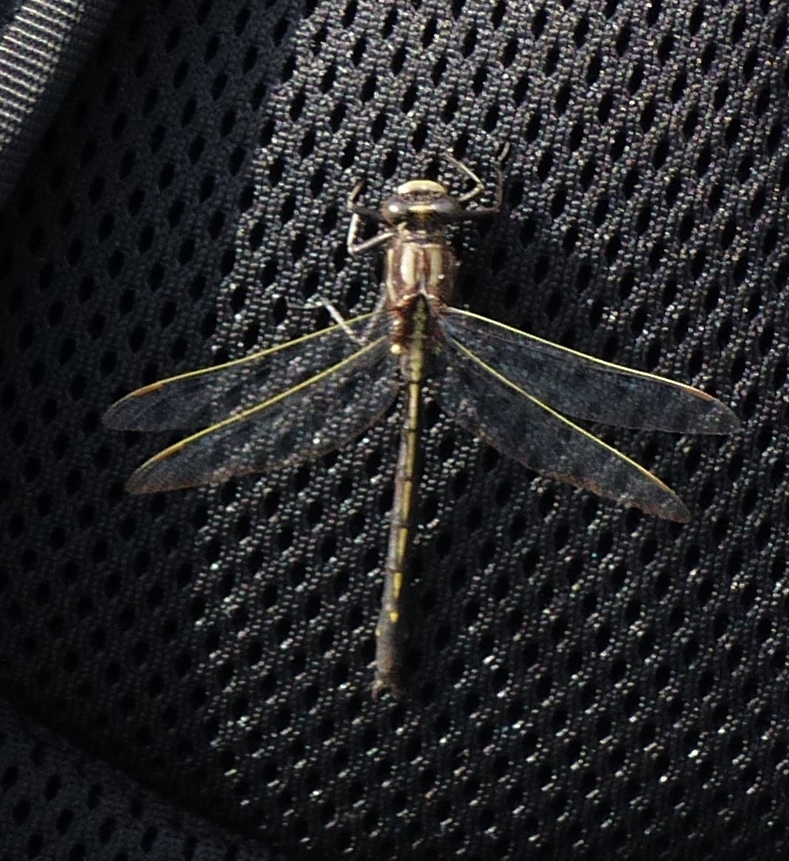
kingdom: Animalia
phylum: Arthropoda
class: Insecta
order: Odonata
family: Gomphidae
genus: Phanogomphus
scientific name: Phanogomphus spicatus
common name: Dusky clubtail
